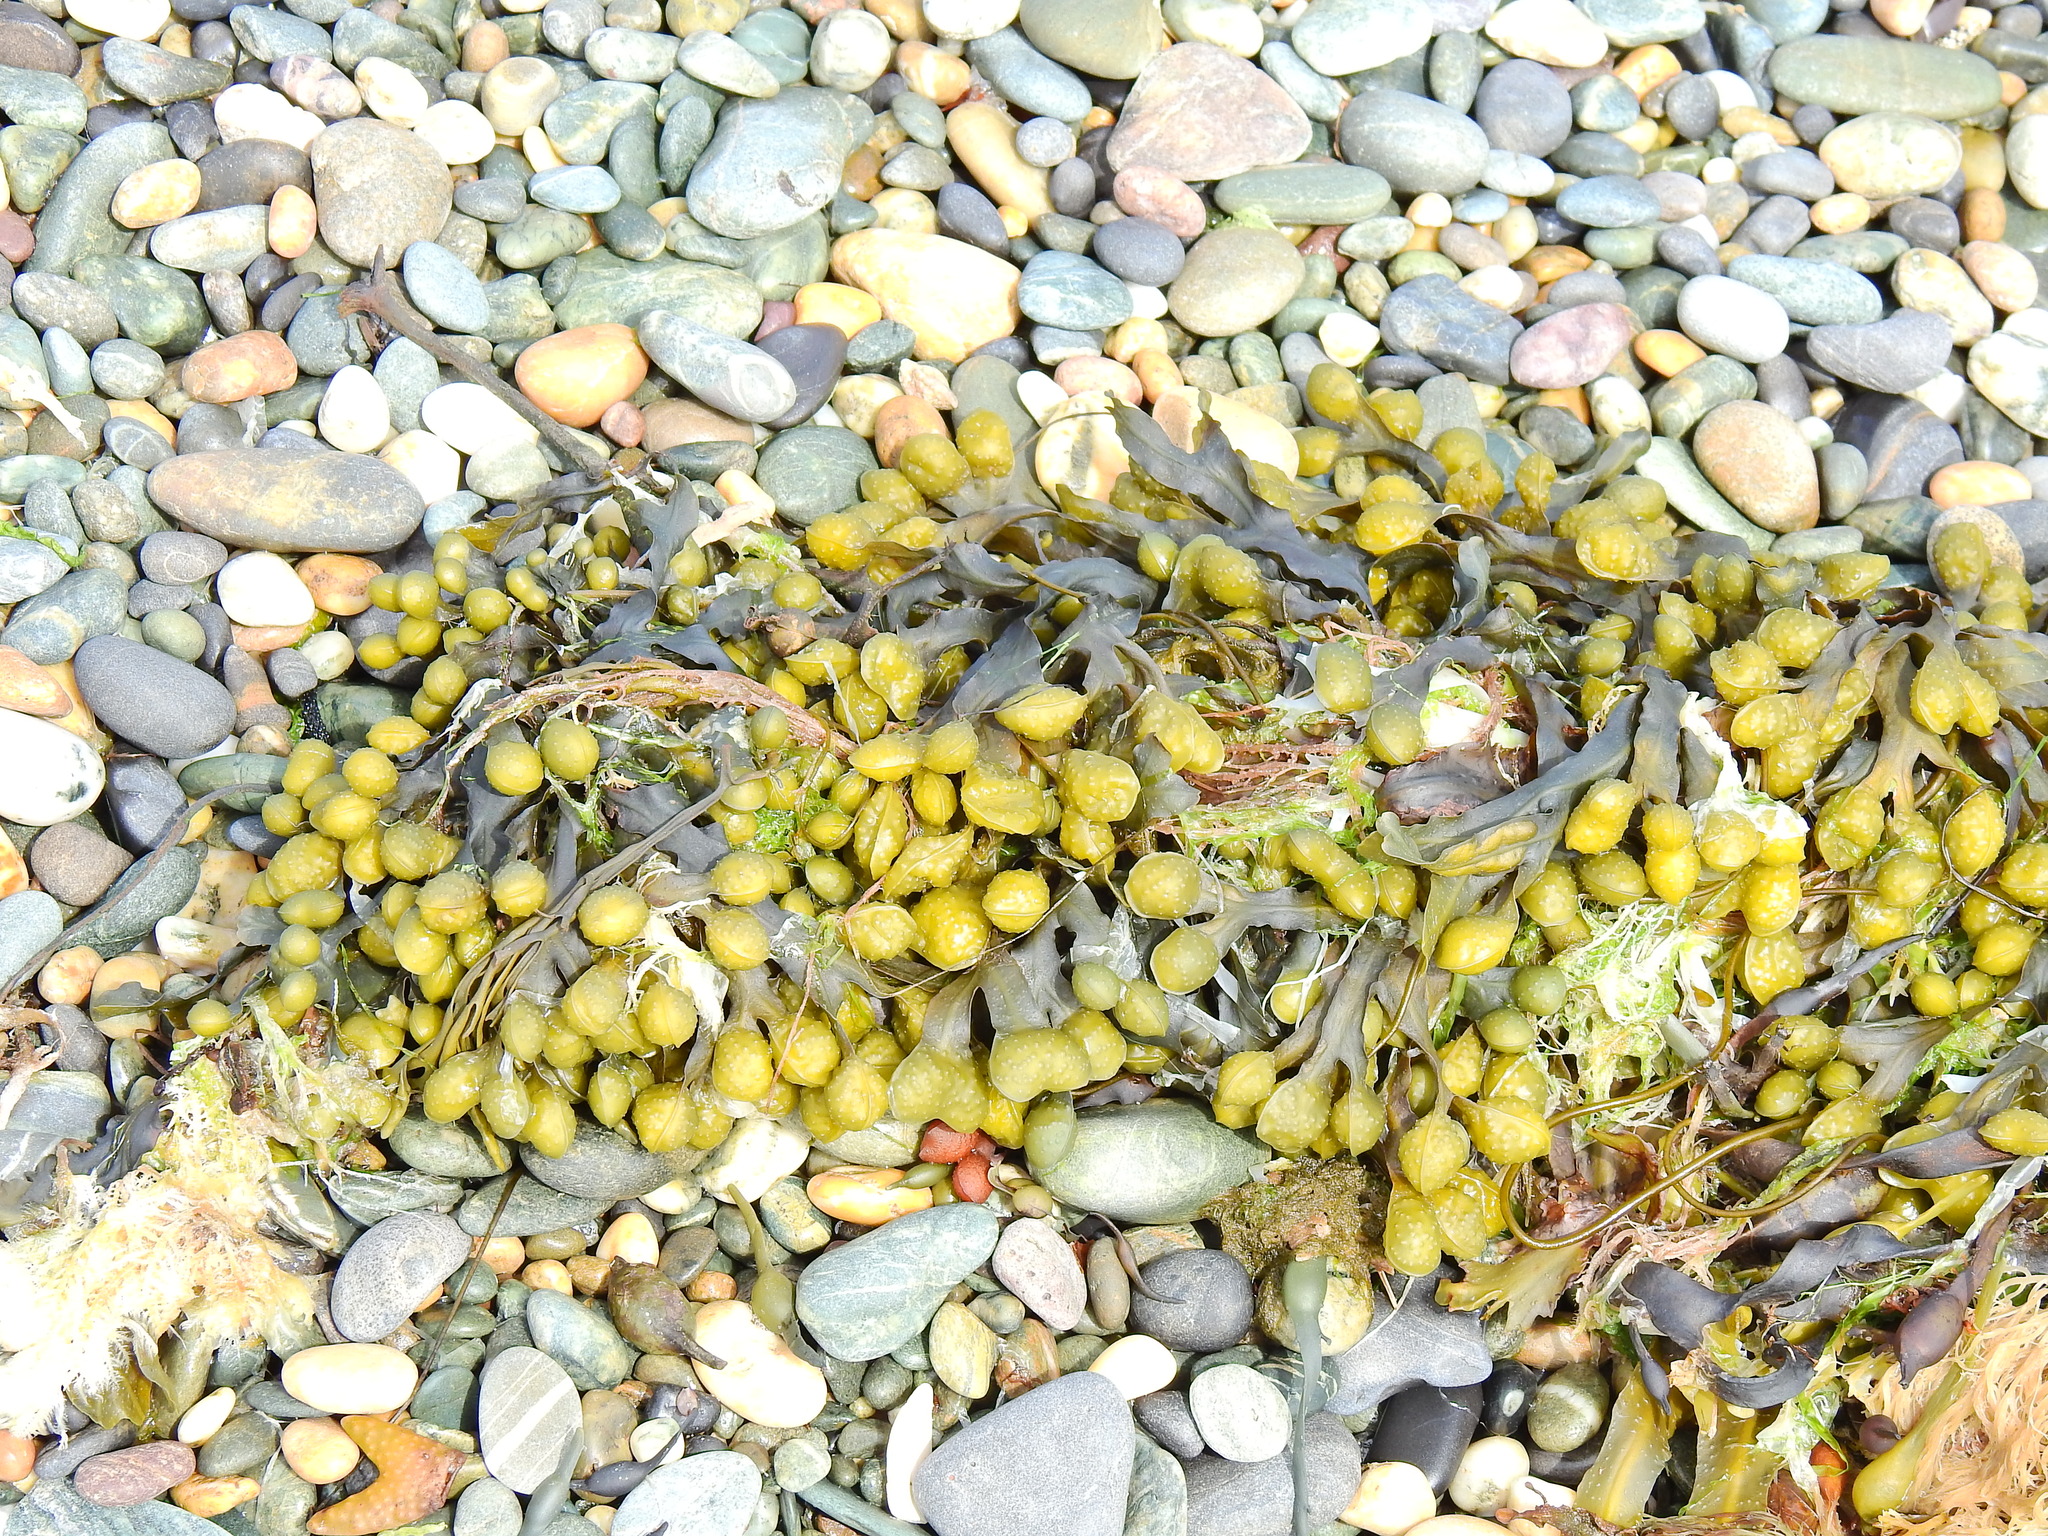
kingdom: Chromista
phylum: Ochrophyta
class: Phaeophyceae
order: Fucales
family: Fucaceae
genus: Fucus
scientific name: Fucus spiralis
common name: Spiral wrack
